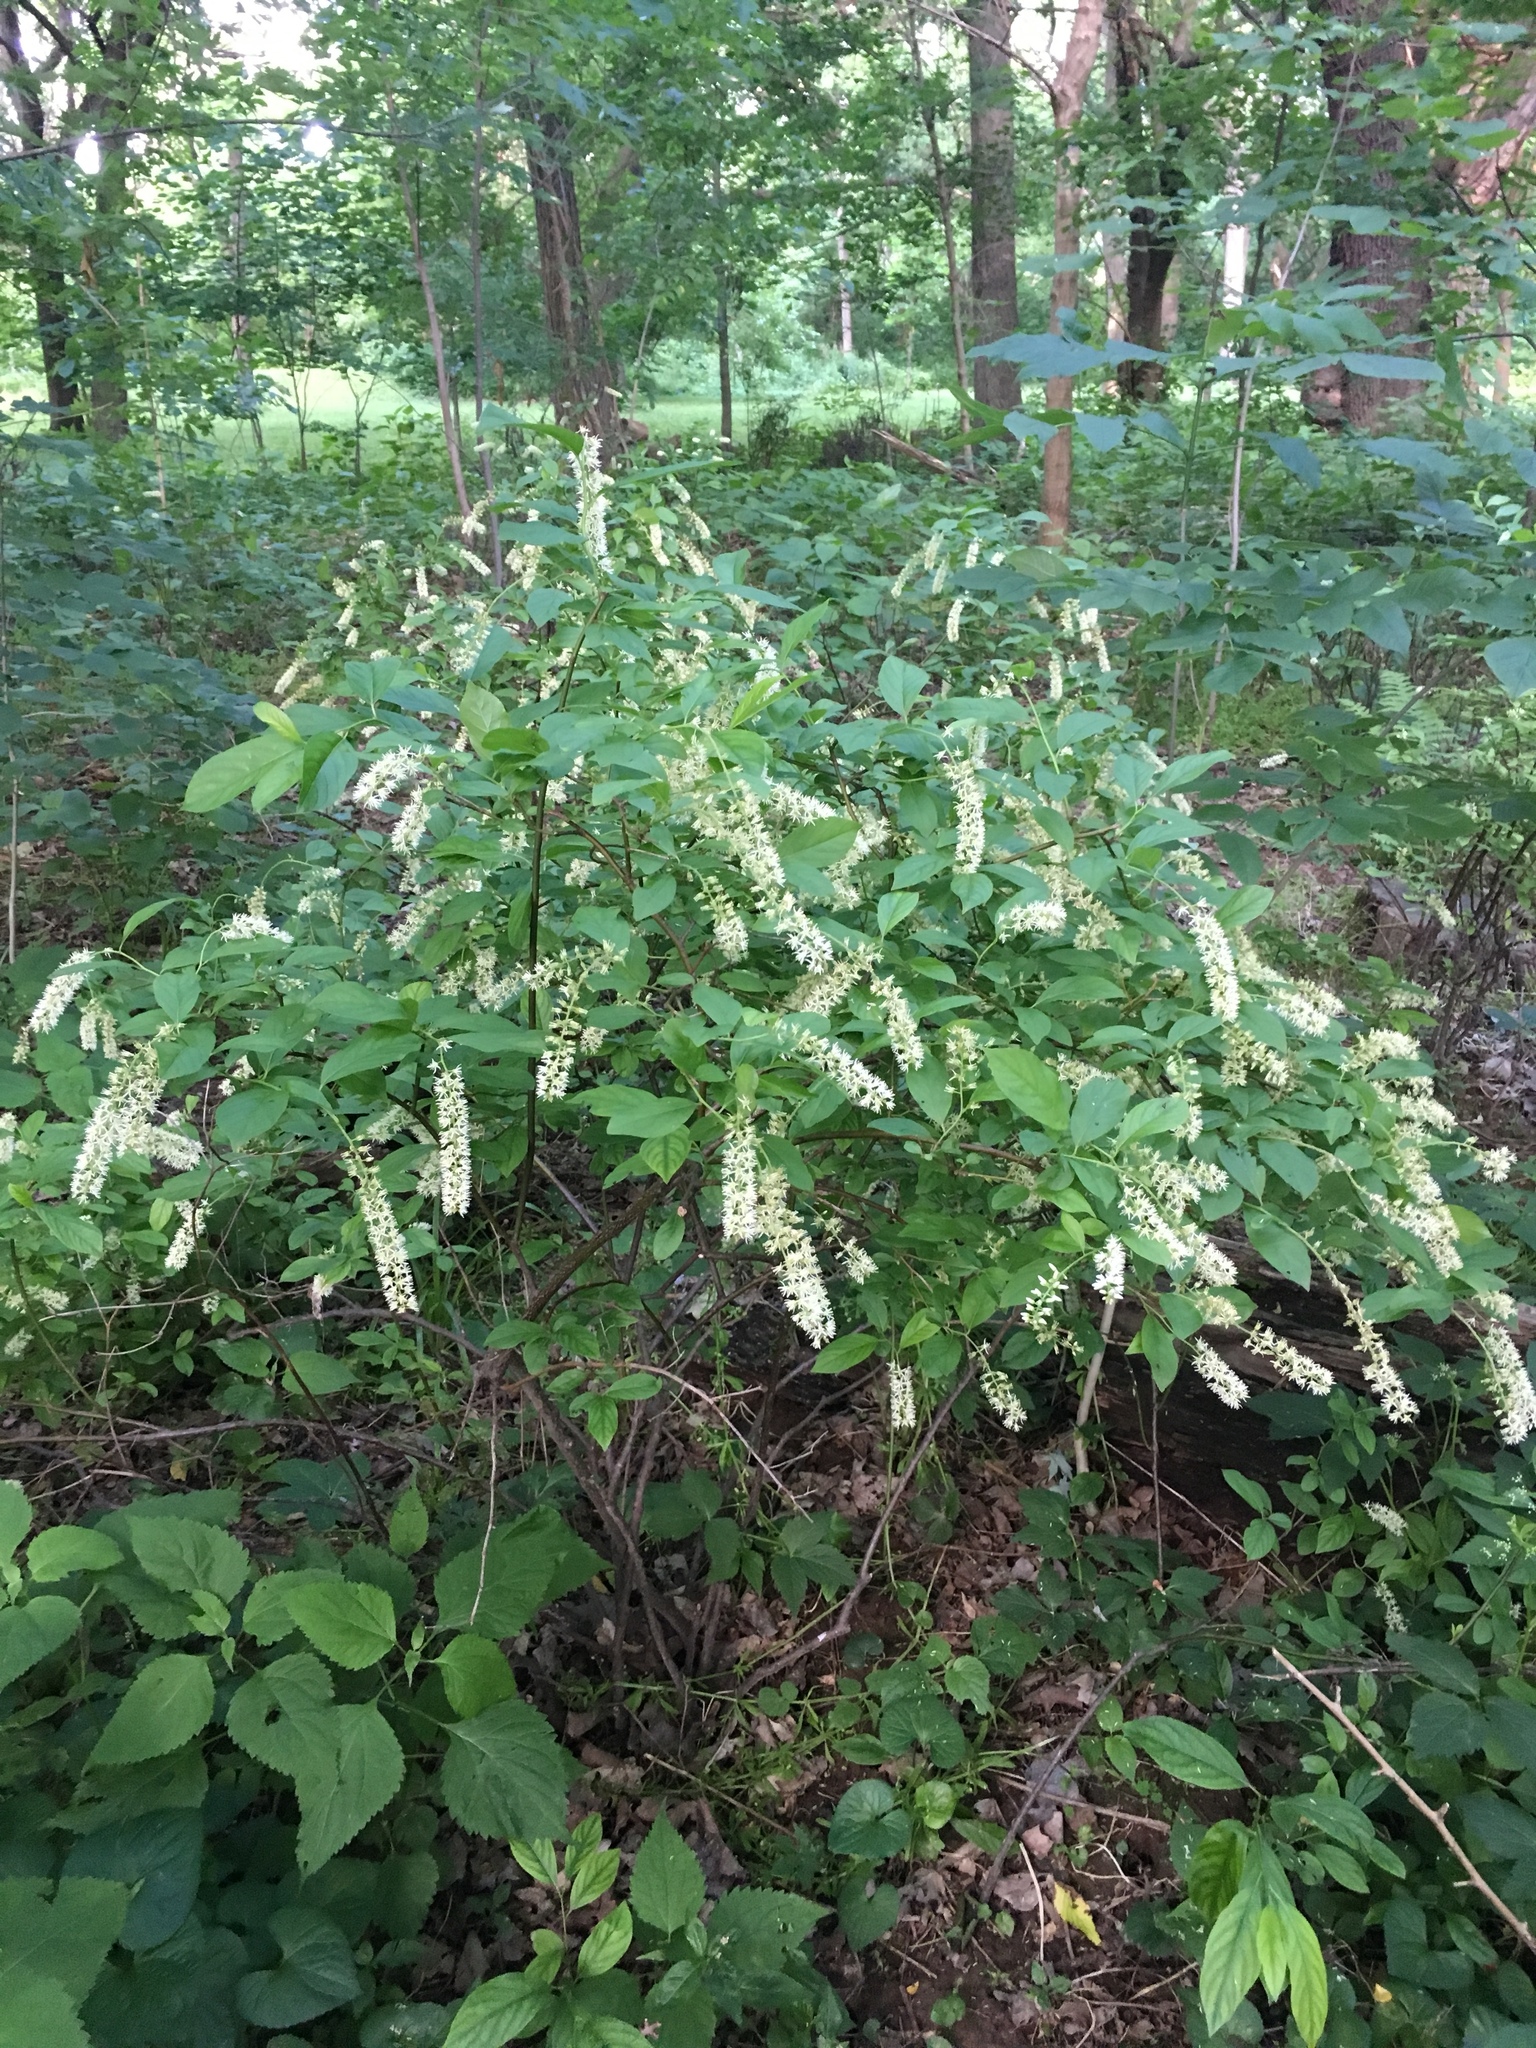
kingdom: Plantae
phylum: Tracheophyta
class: Magnoliopsida
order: Saxifragales
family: Iteaceae
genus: Itea
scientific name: Itea virginica
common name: Sweetspire
